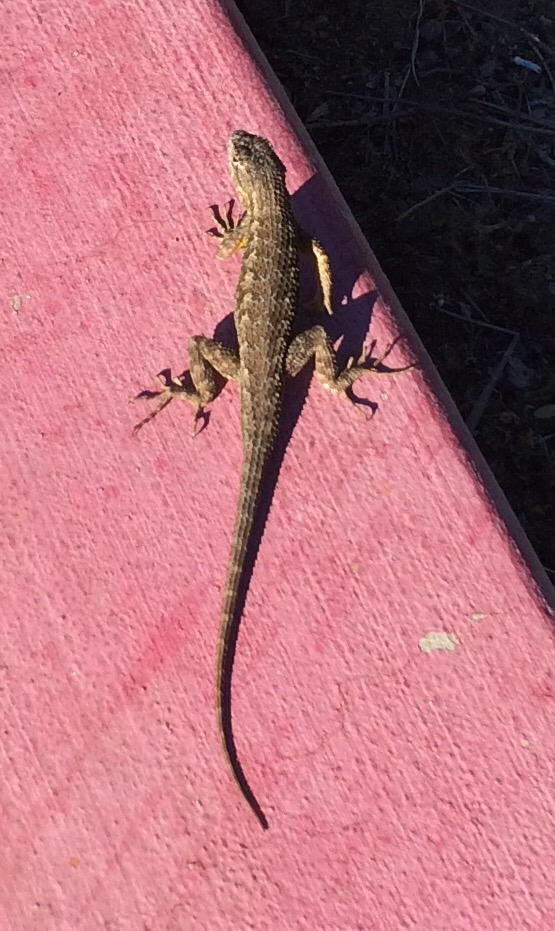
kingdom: Animalia
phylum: Chordata
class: Squamata
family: Phrynosomatidae
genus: Sceloporus
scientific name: Sceloporus occidentalis
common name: Western fence lizard
